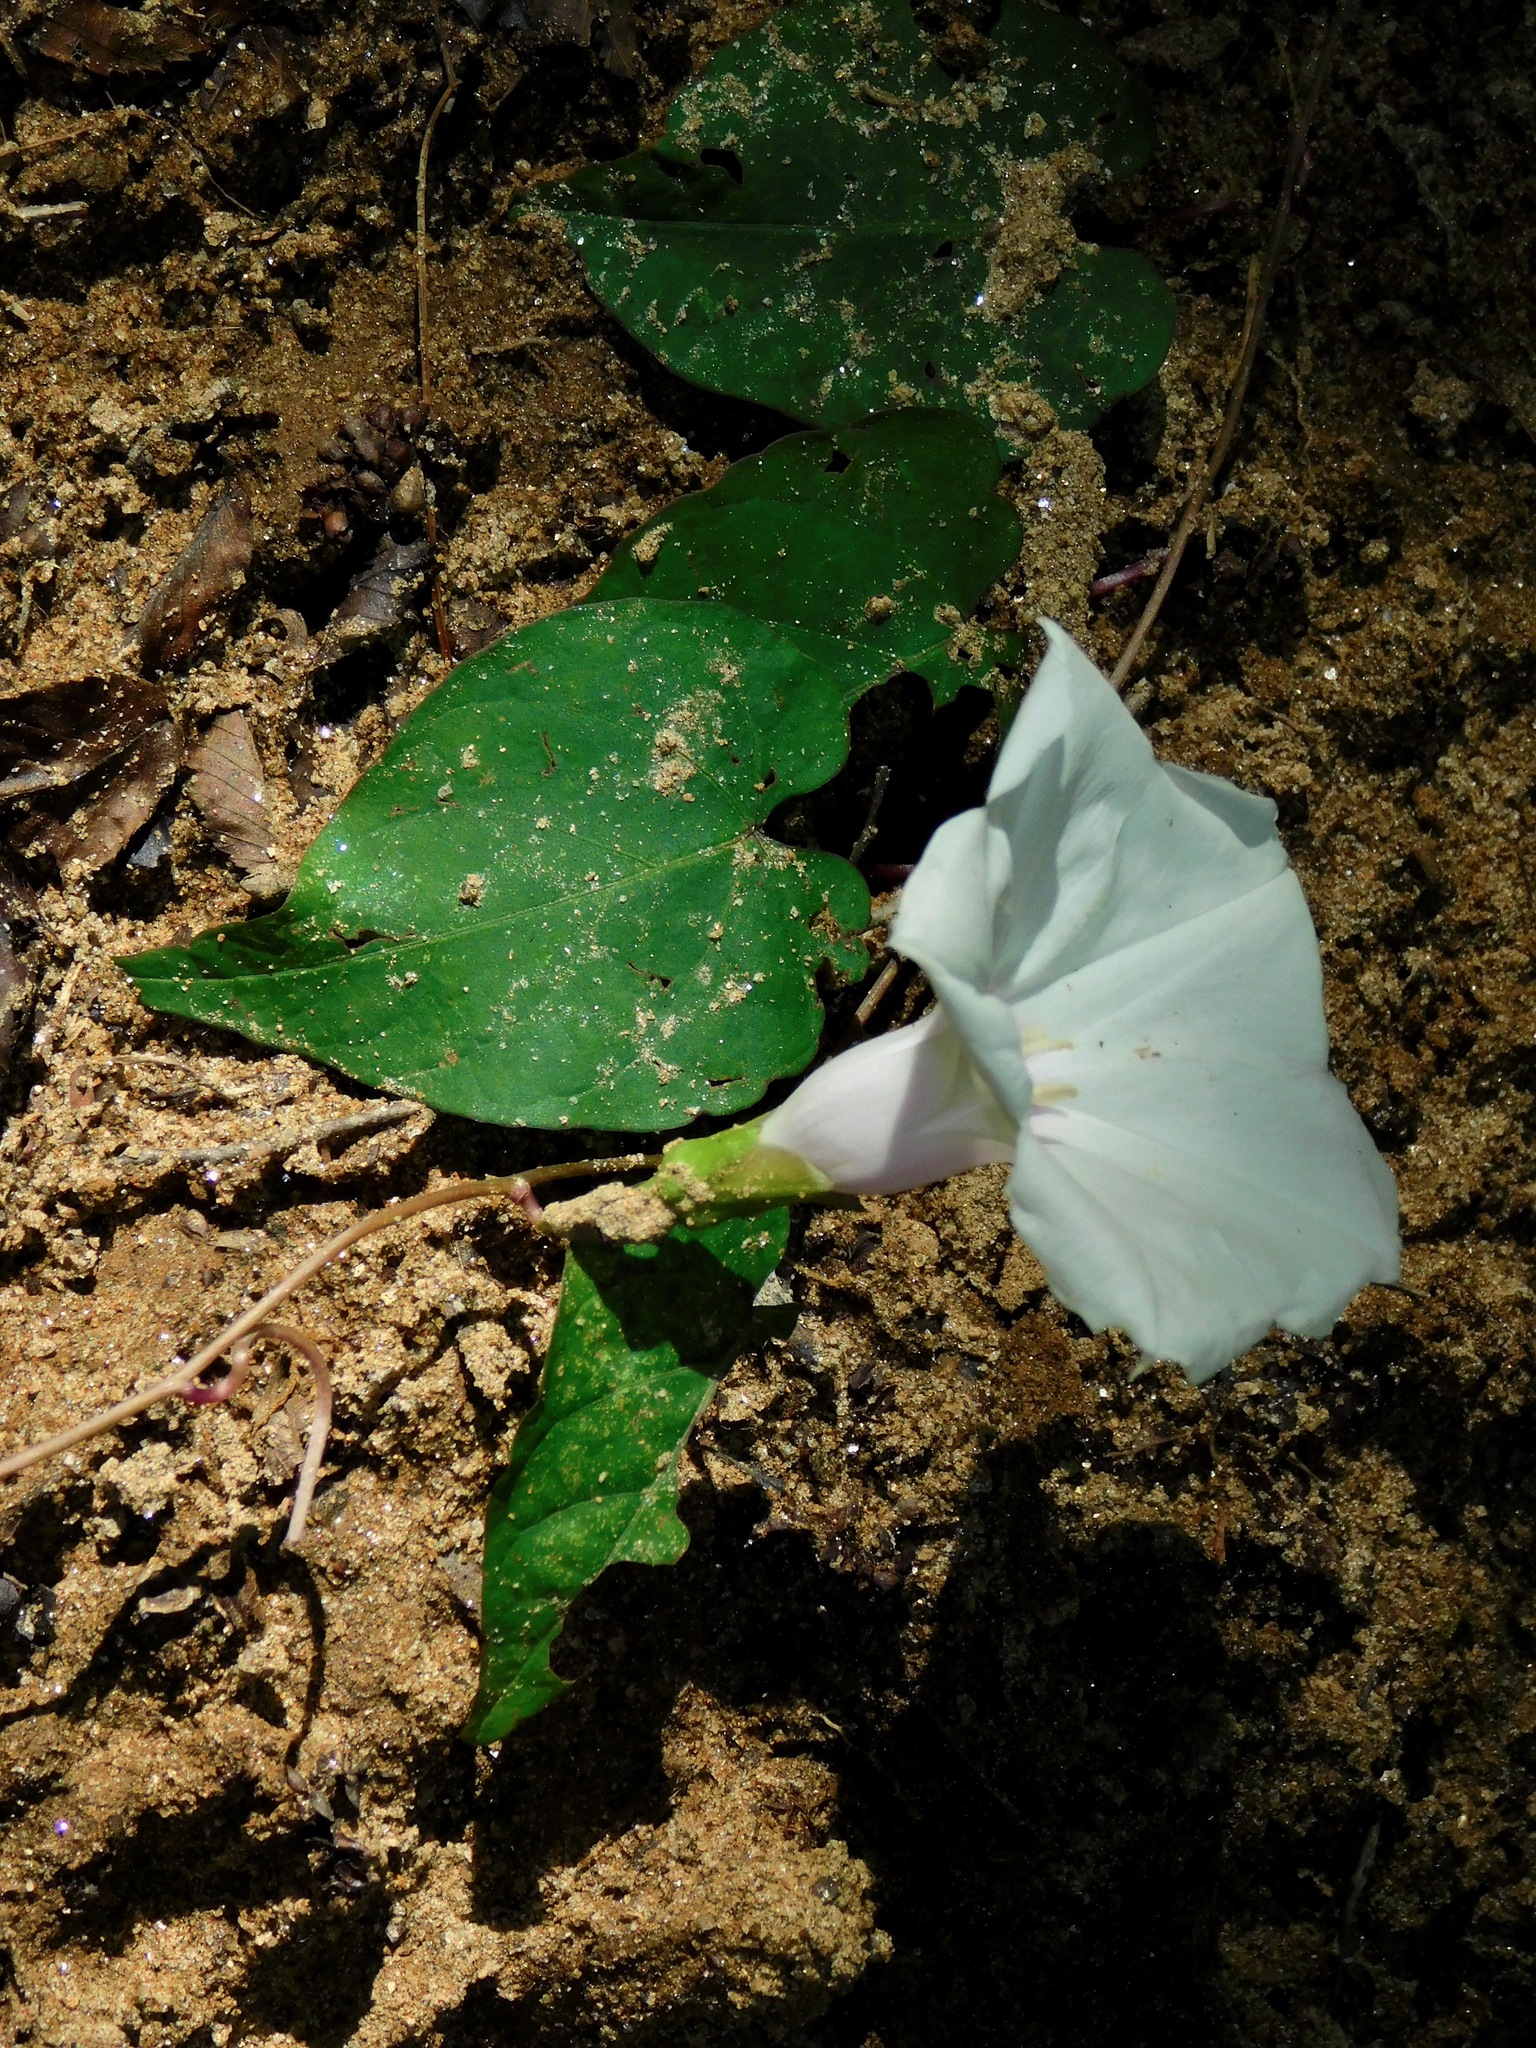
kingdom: Plantae
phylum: Tracheophyta
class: Magnoliopsida
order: Solanales
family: Convolvulaceae
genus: Ipomoea
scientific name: Ipomoea pandurata
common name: Man-of-the-earth
